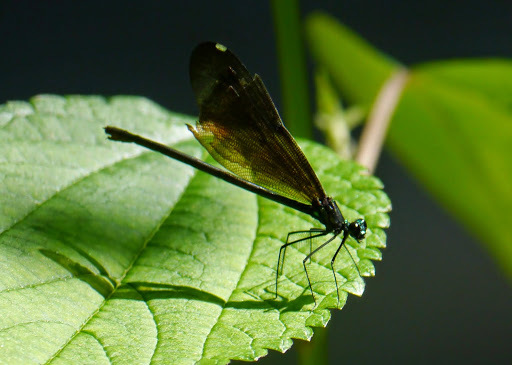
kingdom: Animalia
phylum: Arthropoda
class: Insecta
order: Odonata
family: Calopterygidae
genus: Calopteryx
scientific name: Calopteryx maculata
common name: Ebony jewelwing
